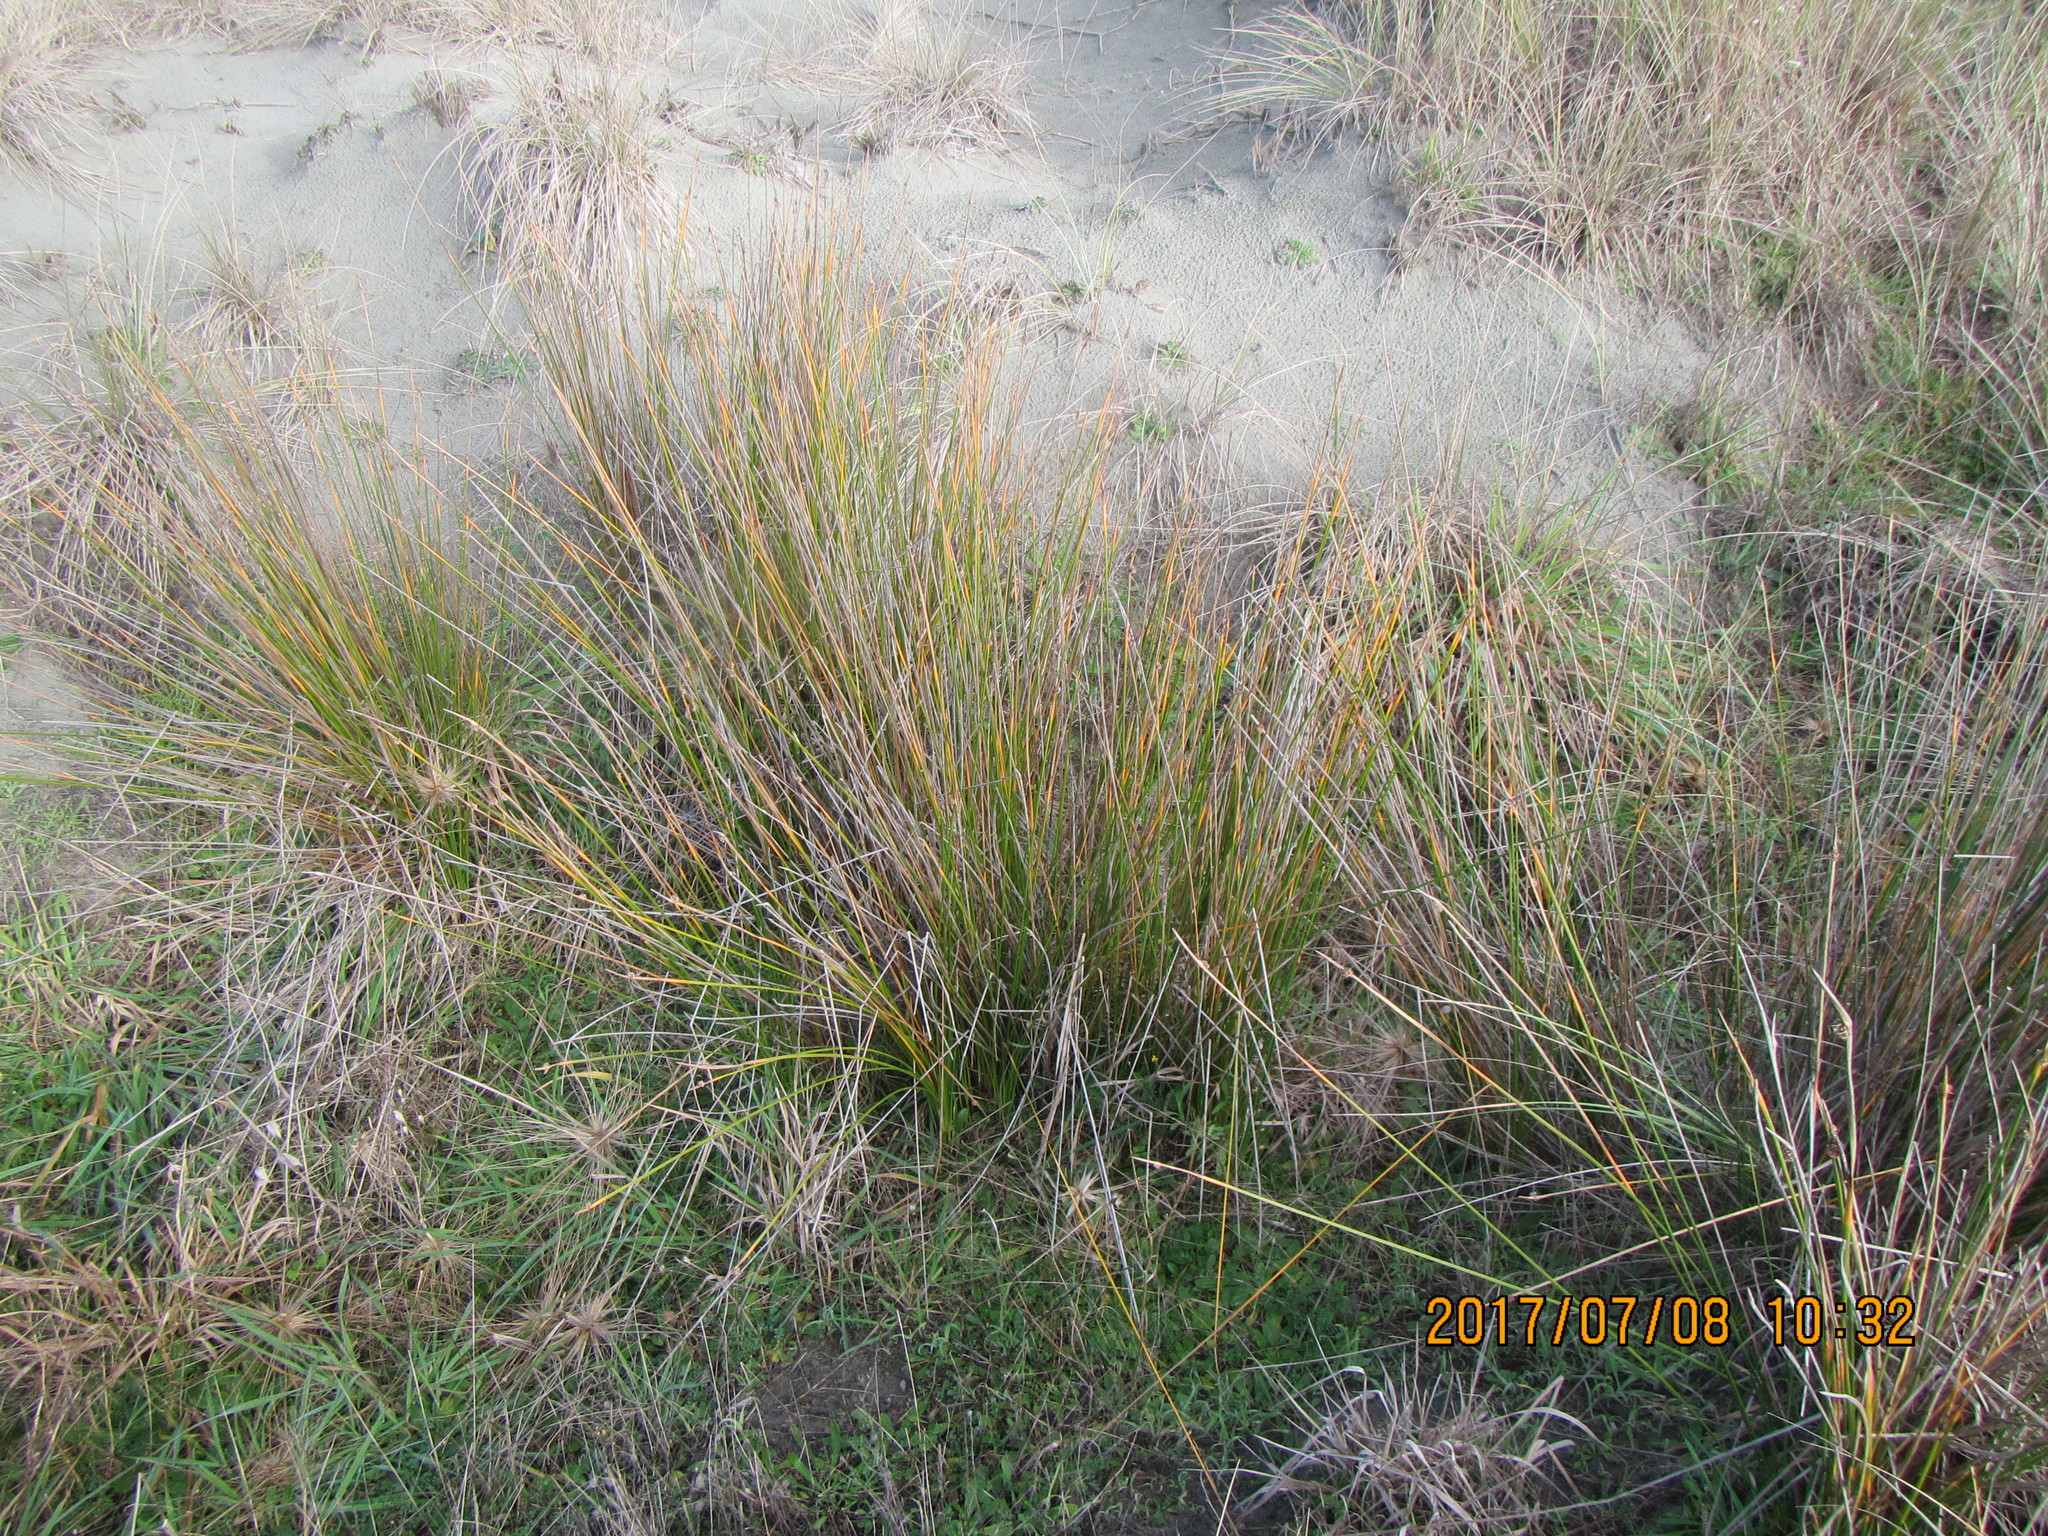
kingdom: Plantae
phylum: Tracheophyta
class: Liliopsida
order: Poales
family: Cyperaceae
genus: Ficinia
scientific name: Ficinia nodosa
